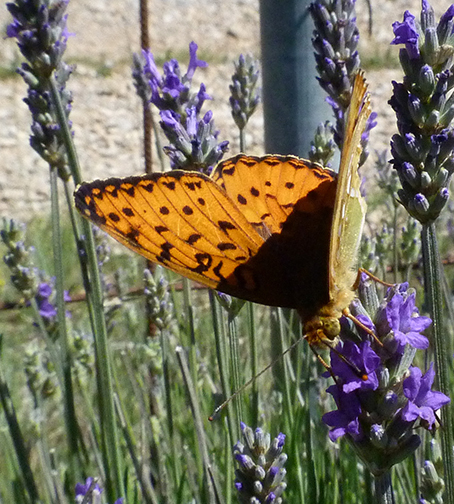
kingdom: Animalia
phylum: Arthropoda
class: Insecta
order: Lepidoptera
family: Nymphalidae
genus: Speyeria
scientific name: Speyeria aglaja
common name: Dark green fritillary
